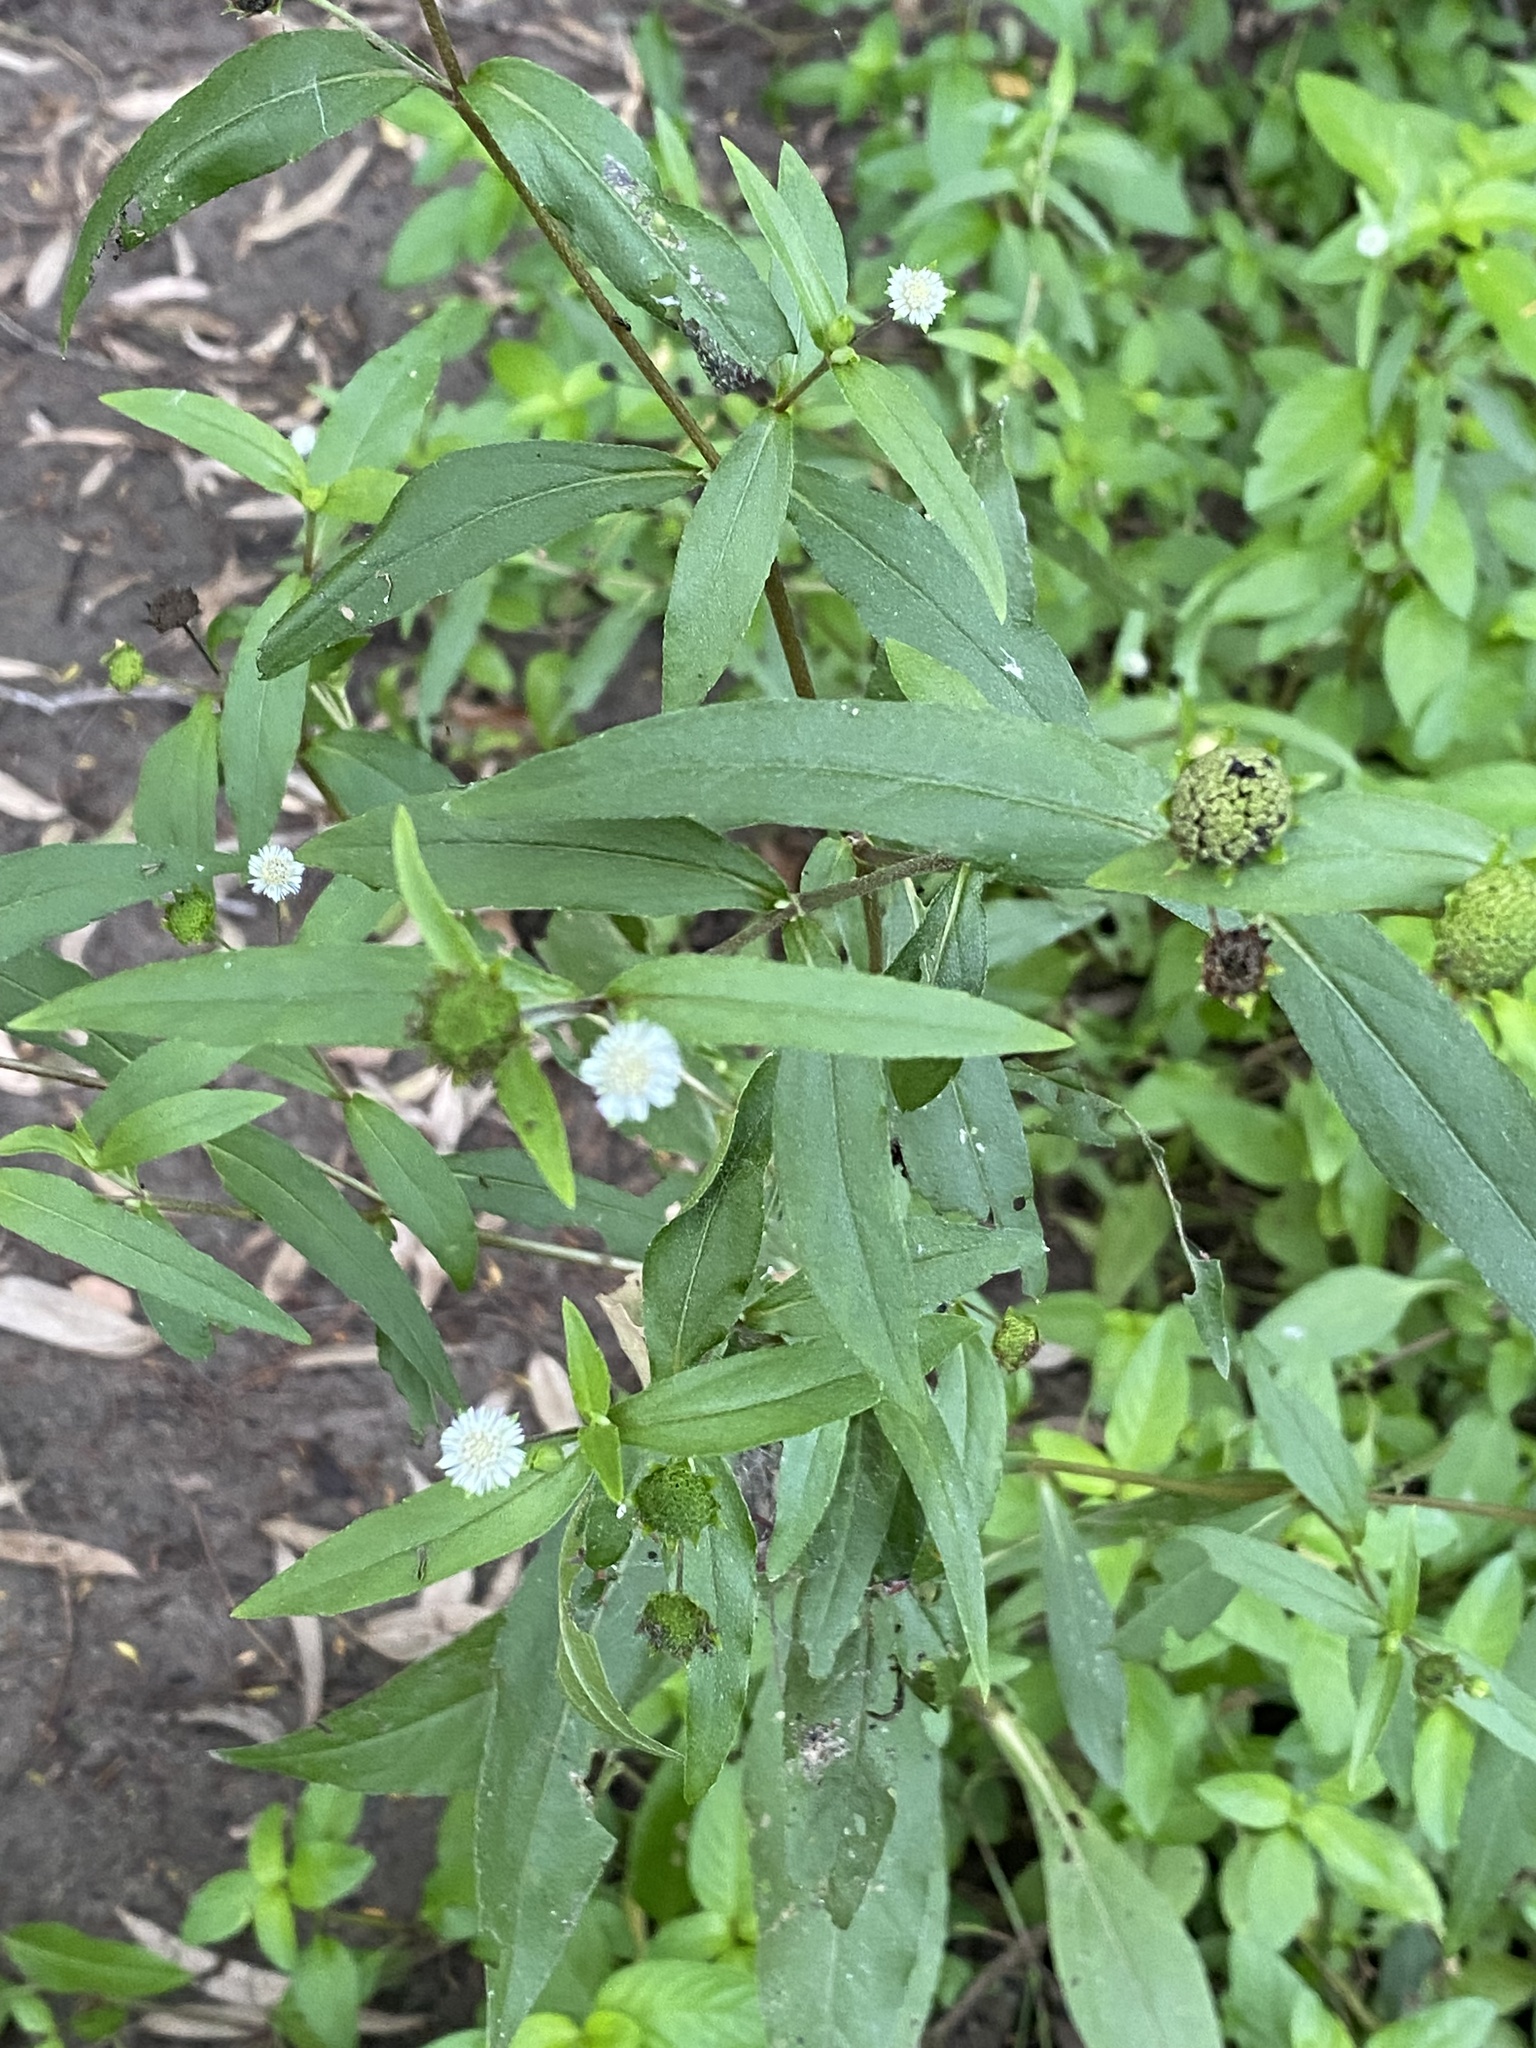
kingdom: Plantae
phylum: Tracheophyta
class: Magnoliopsida
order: Asterales
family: Asteraceae
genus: Eclipta
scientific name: Eclipta prostrata
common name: False daisy
